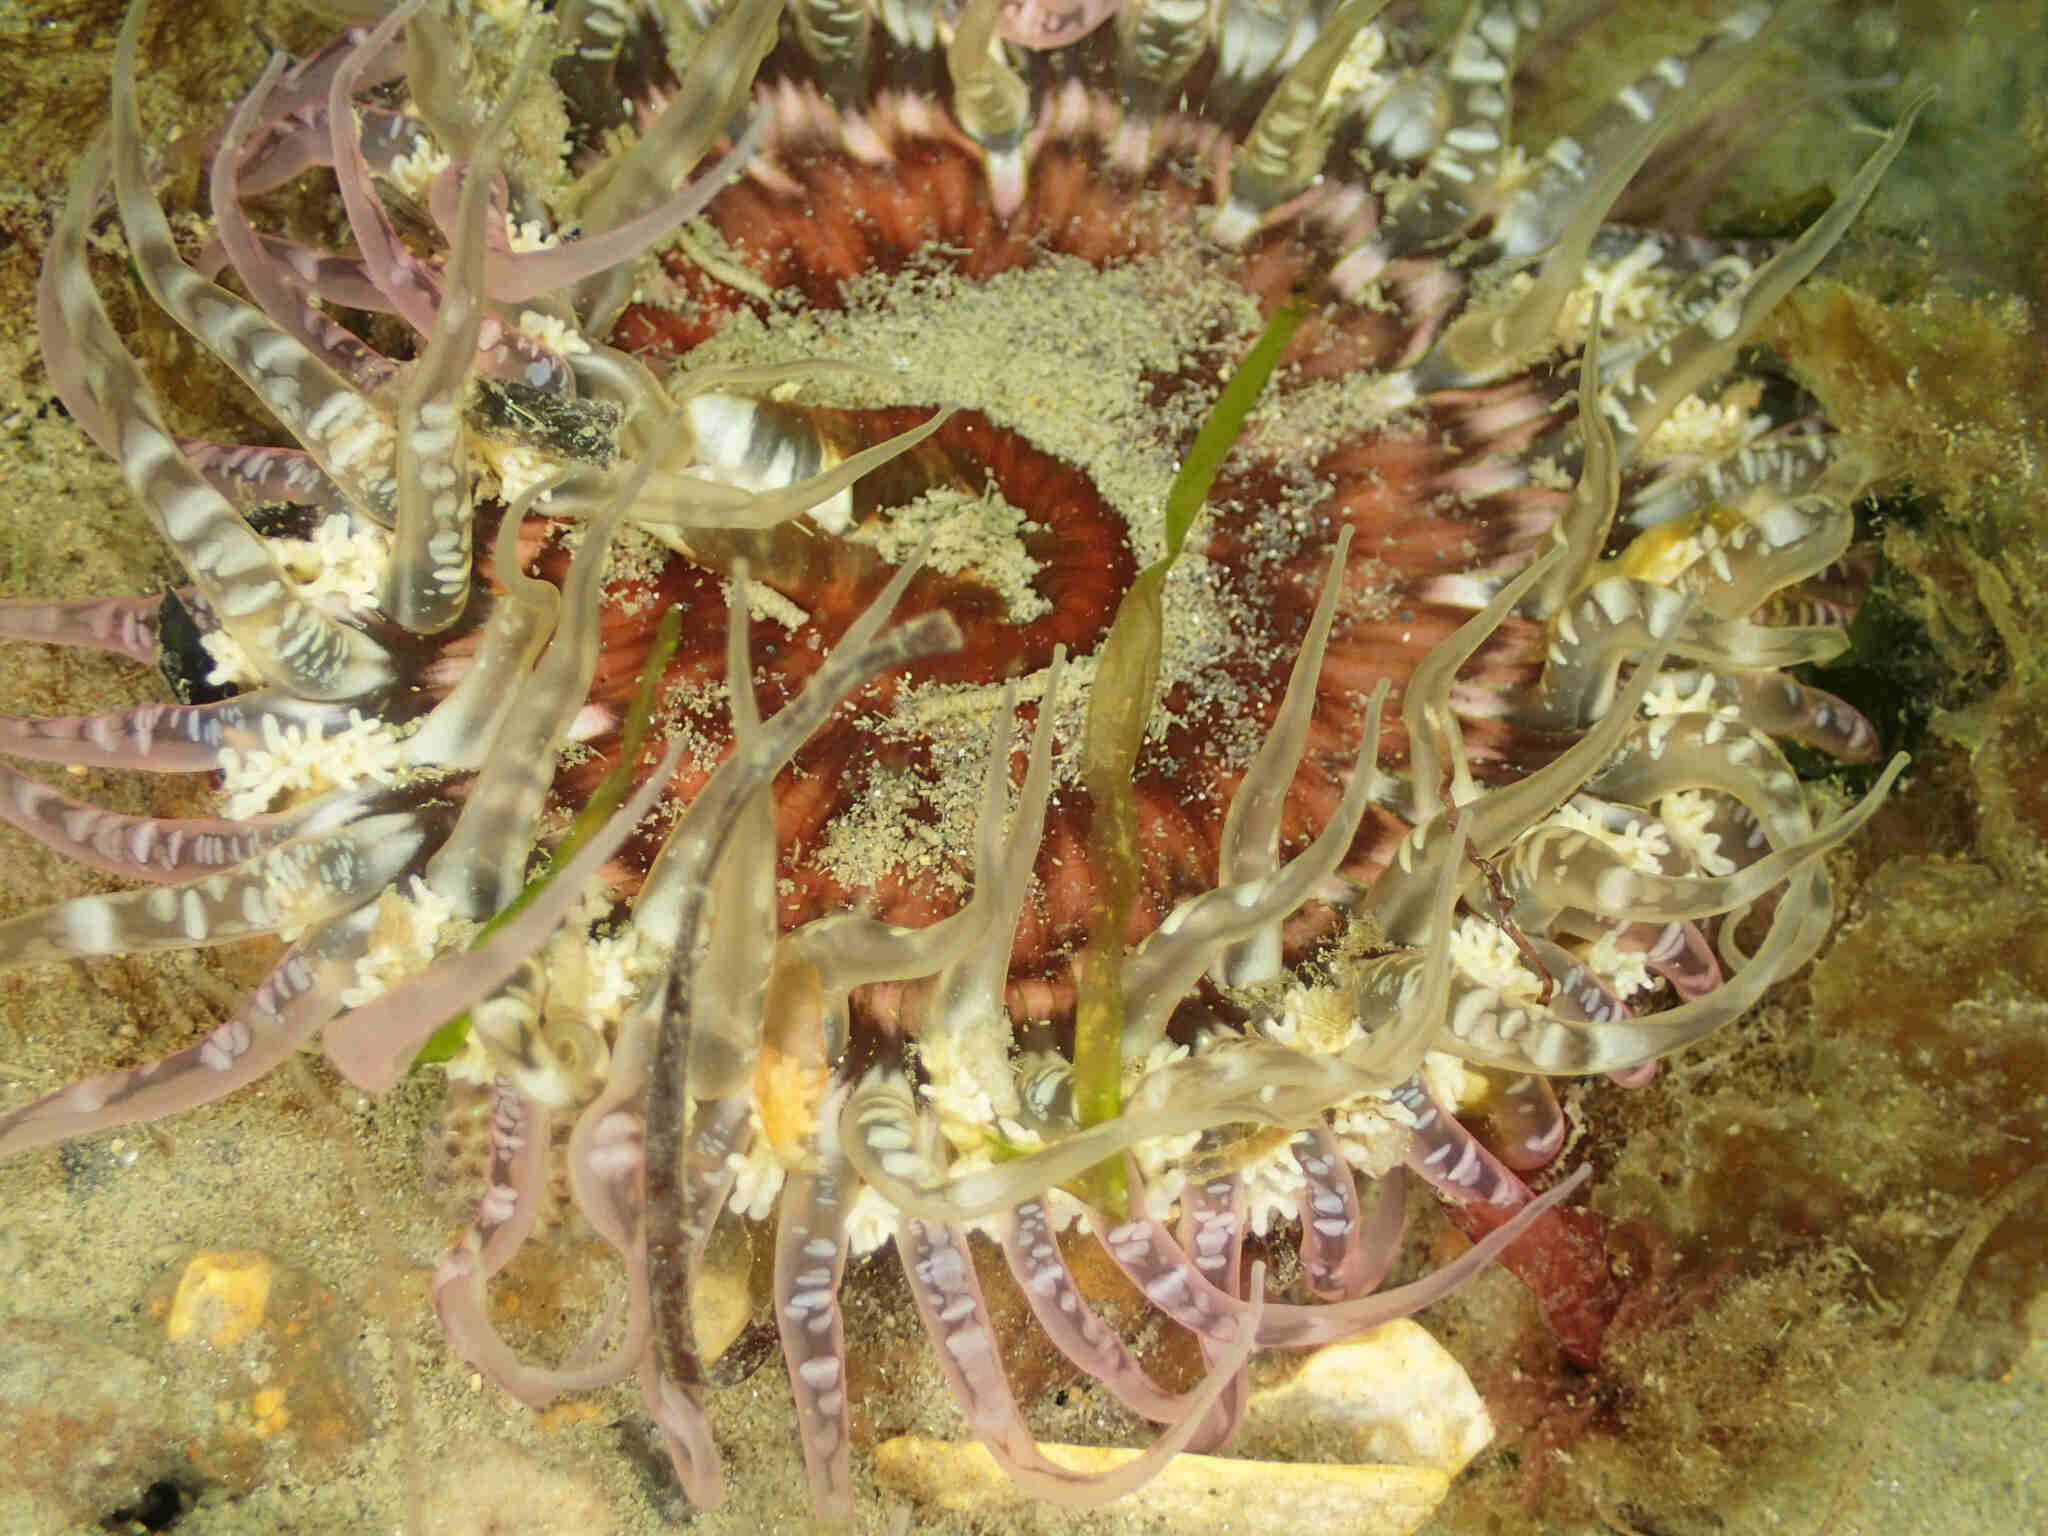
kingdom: Animalia
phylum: Cnidaria
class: Anthozoa
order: Actiniaria
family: Actiniidae
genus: Oulactis
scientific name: Oulactis muscosa
